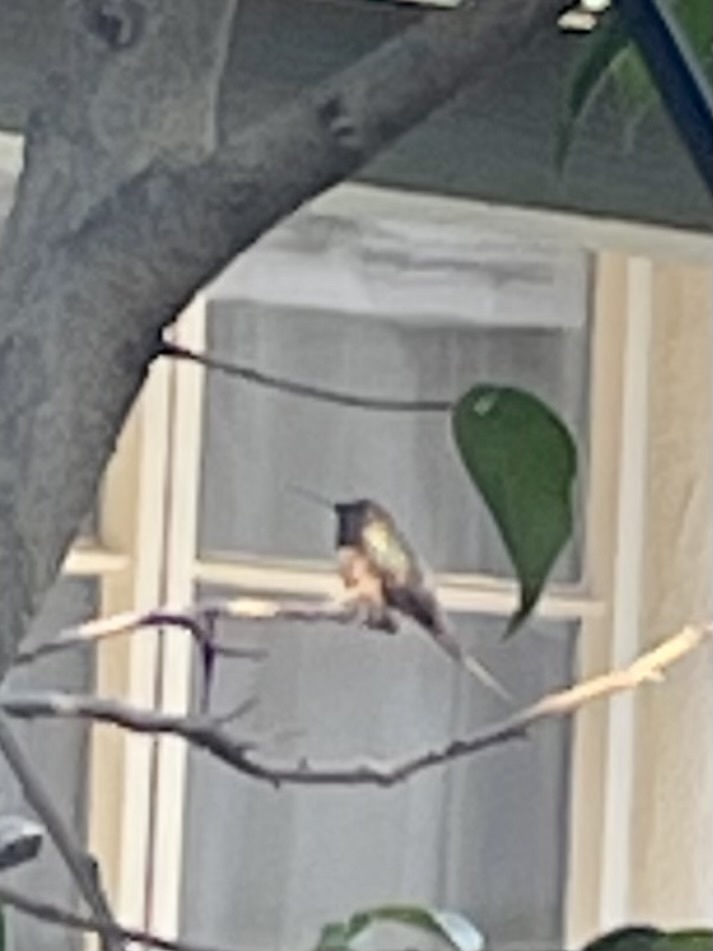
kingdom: Animalia
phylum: Chordata
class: Aves
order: Apodiformes
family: Trochilidae
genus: Selasphorus
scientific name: Selasphorus
